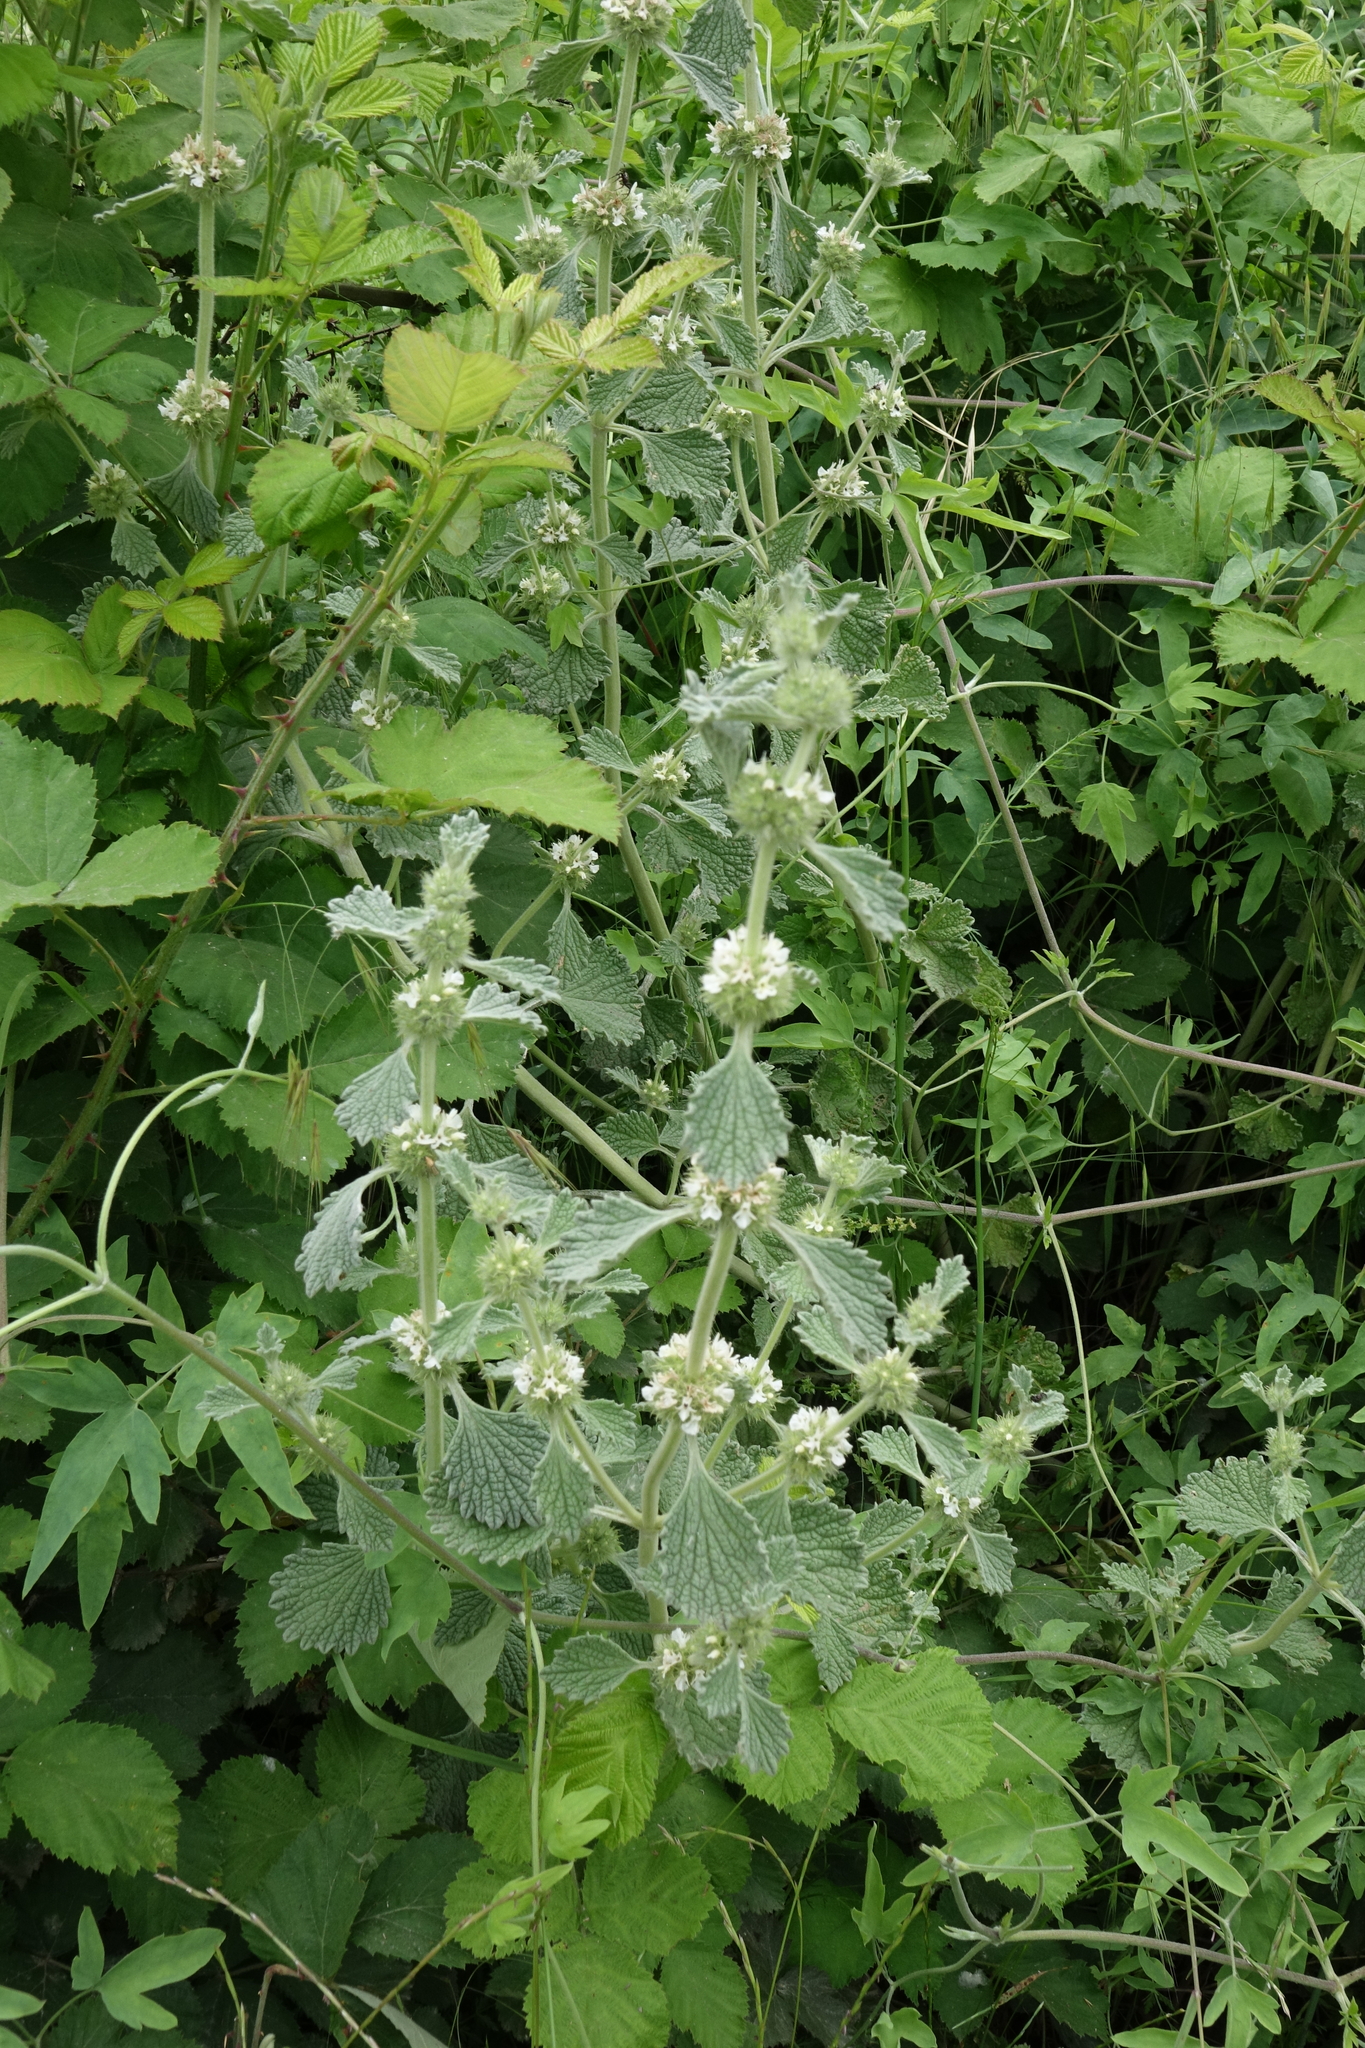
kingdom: Plantae
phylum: Tracheophyta
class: Magnoliopsida
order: Lamiales
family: Lamiaceae
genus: Marrubium
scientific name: Marrubium vulgare
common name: Horehound
